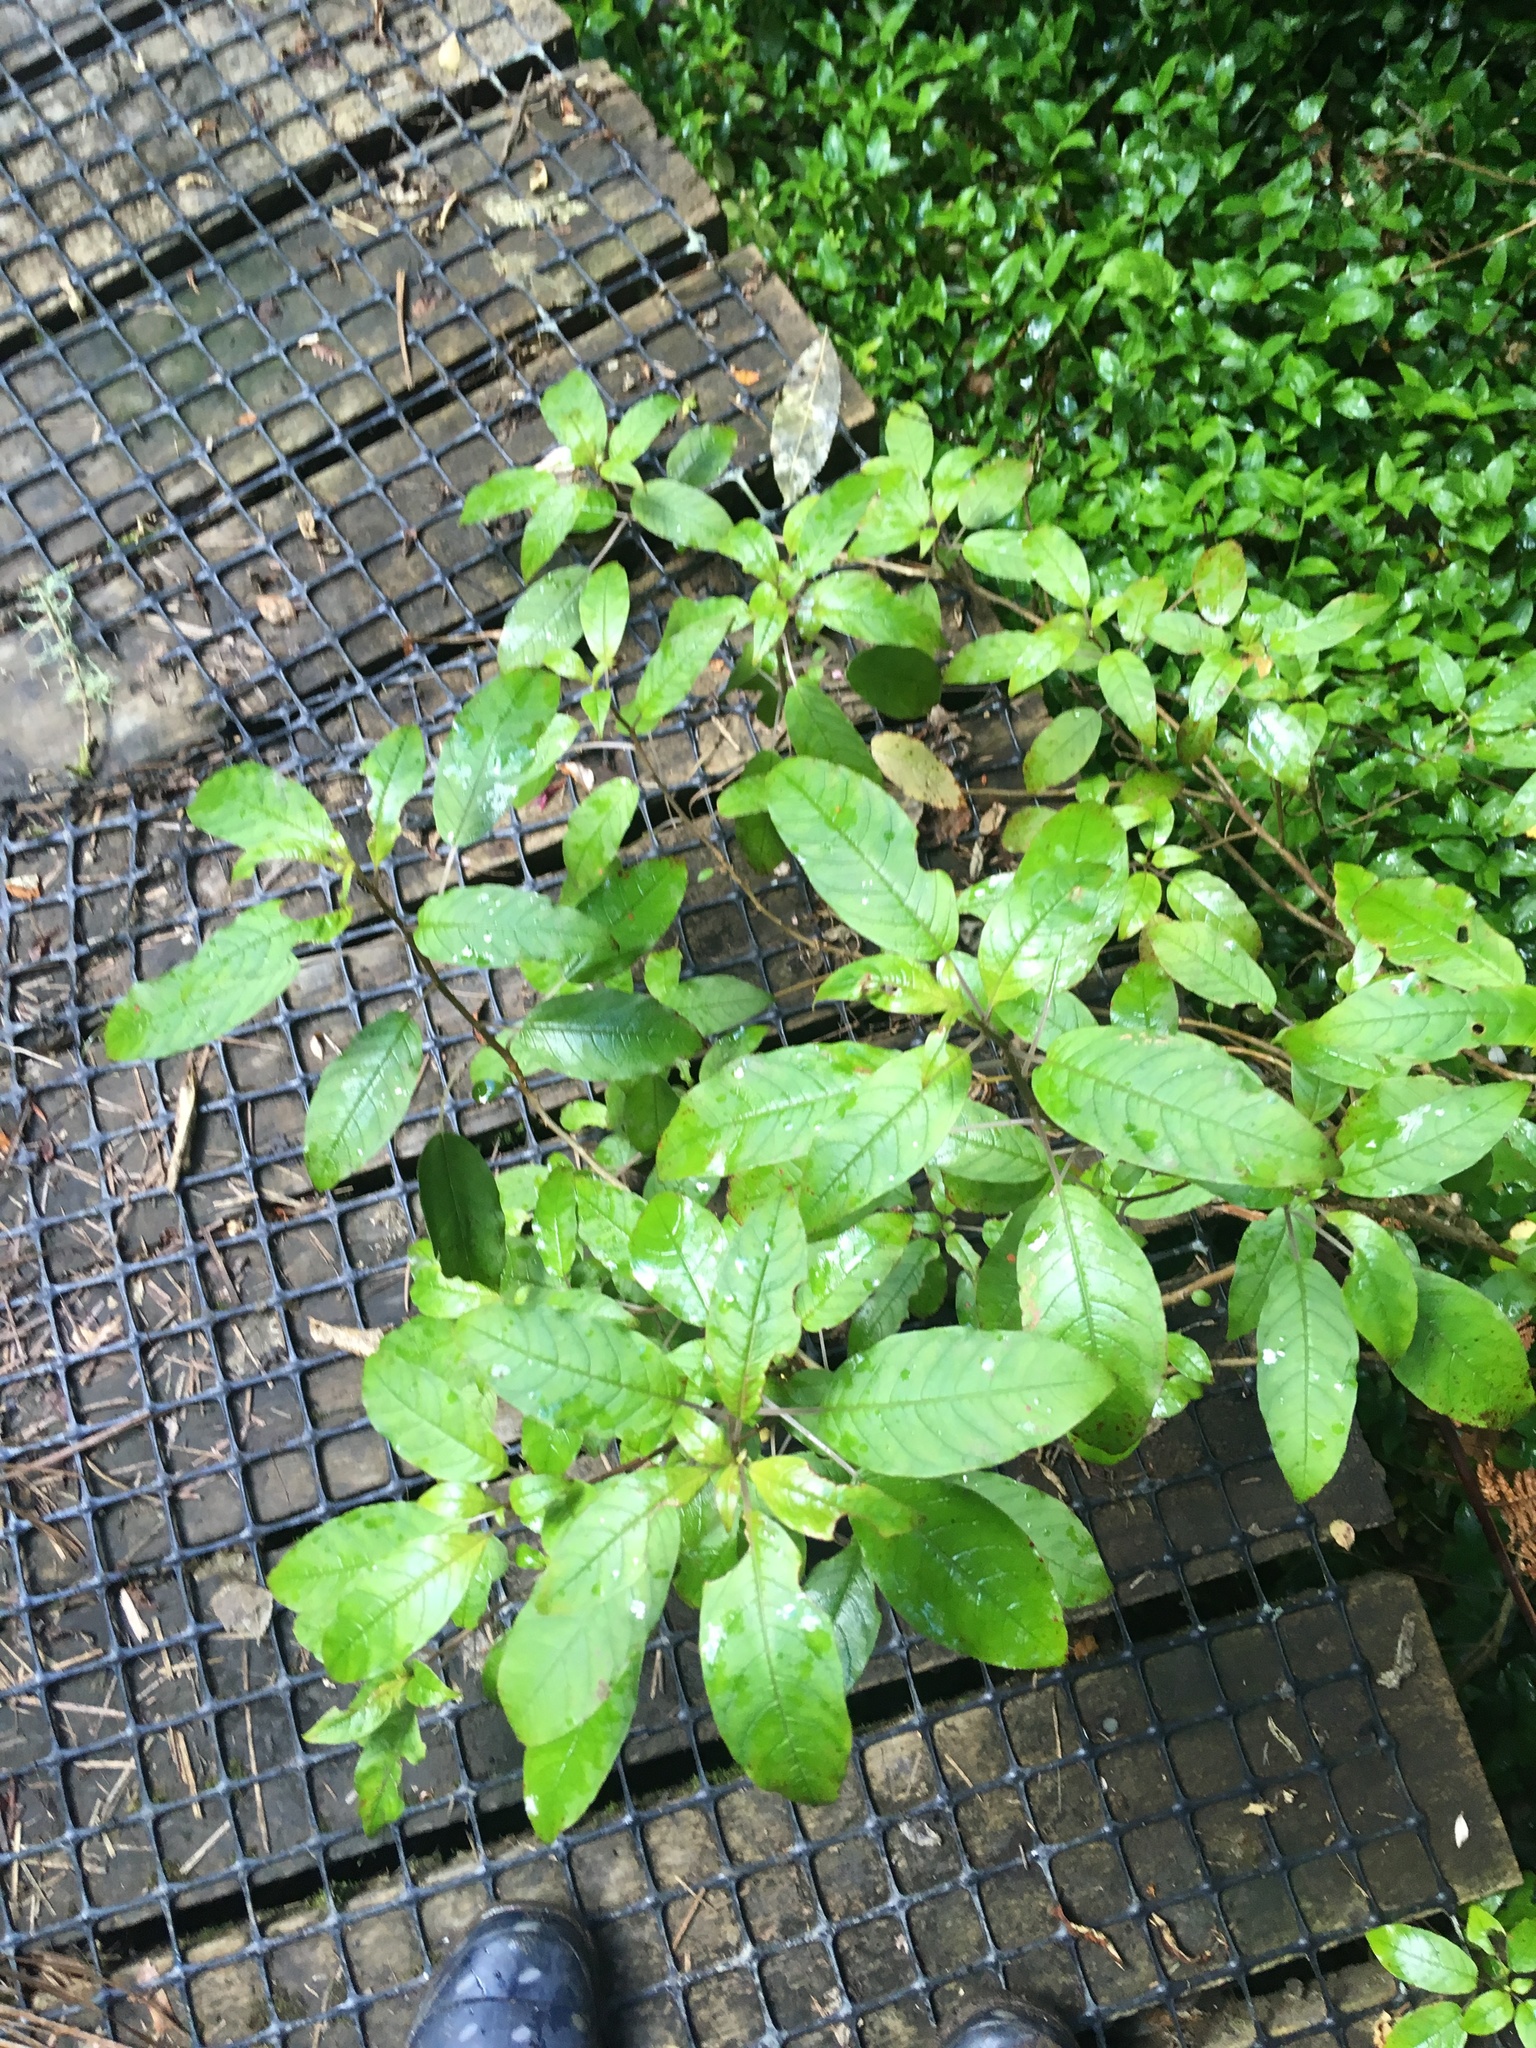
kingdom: Plantae
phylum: Tracheophyta
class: Magnoliopsida
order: Myrtales
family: Onagraceae
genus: Fuchsia
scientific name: Fuchsia excorticata
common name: Tree fuchsia
